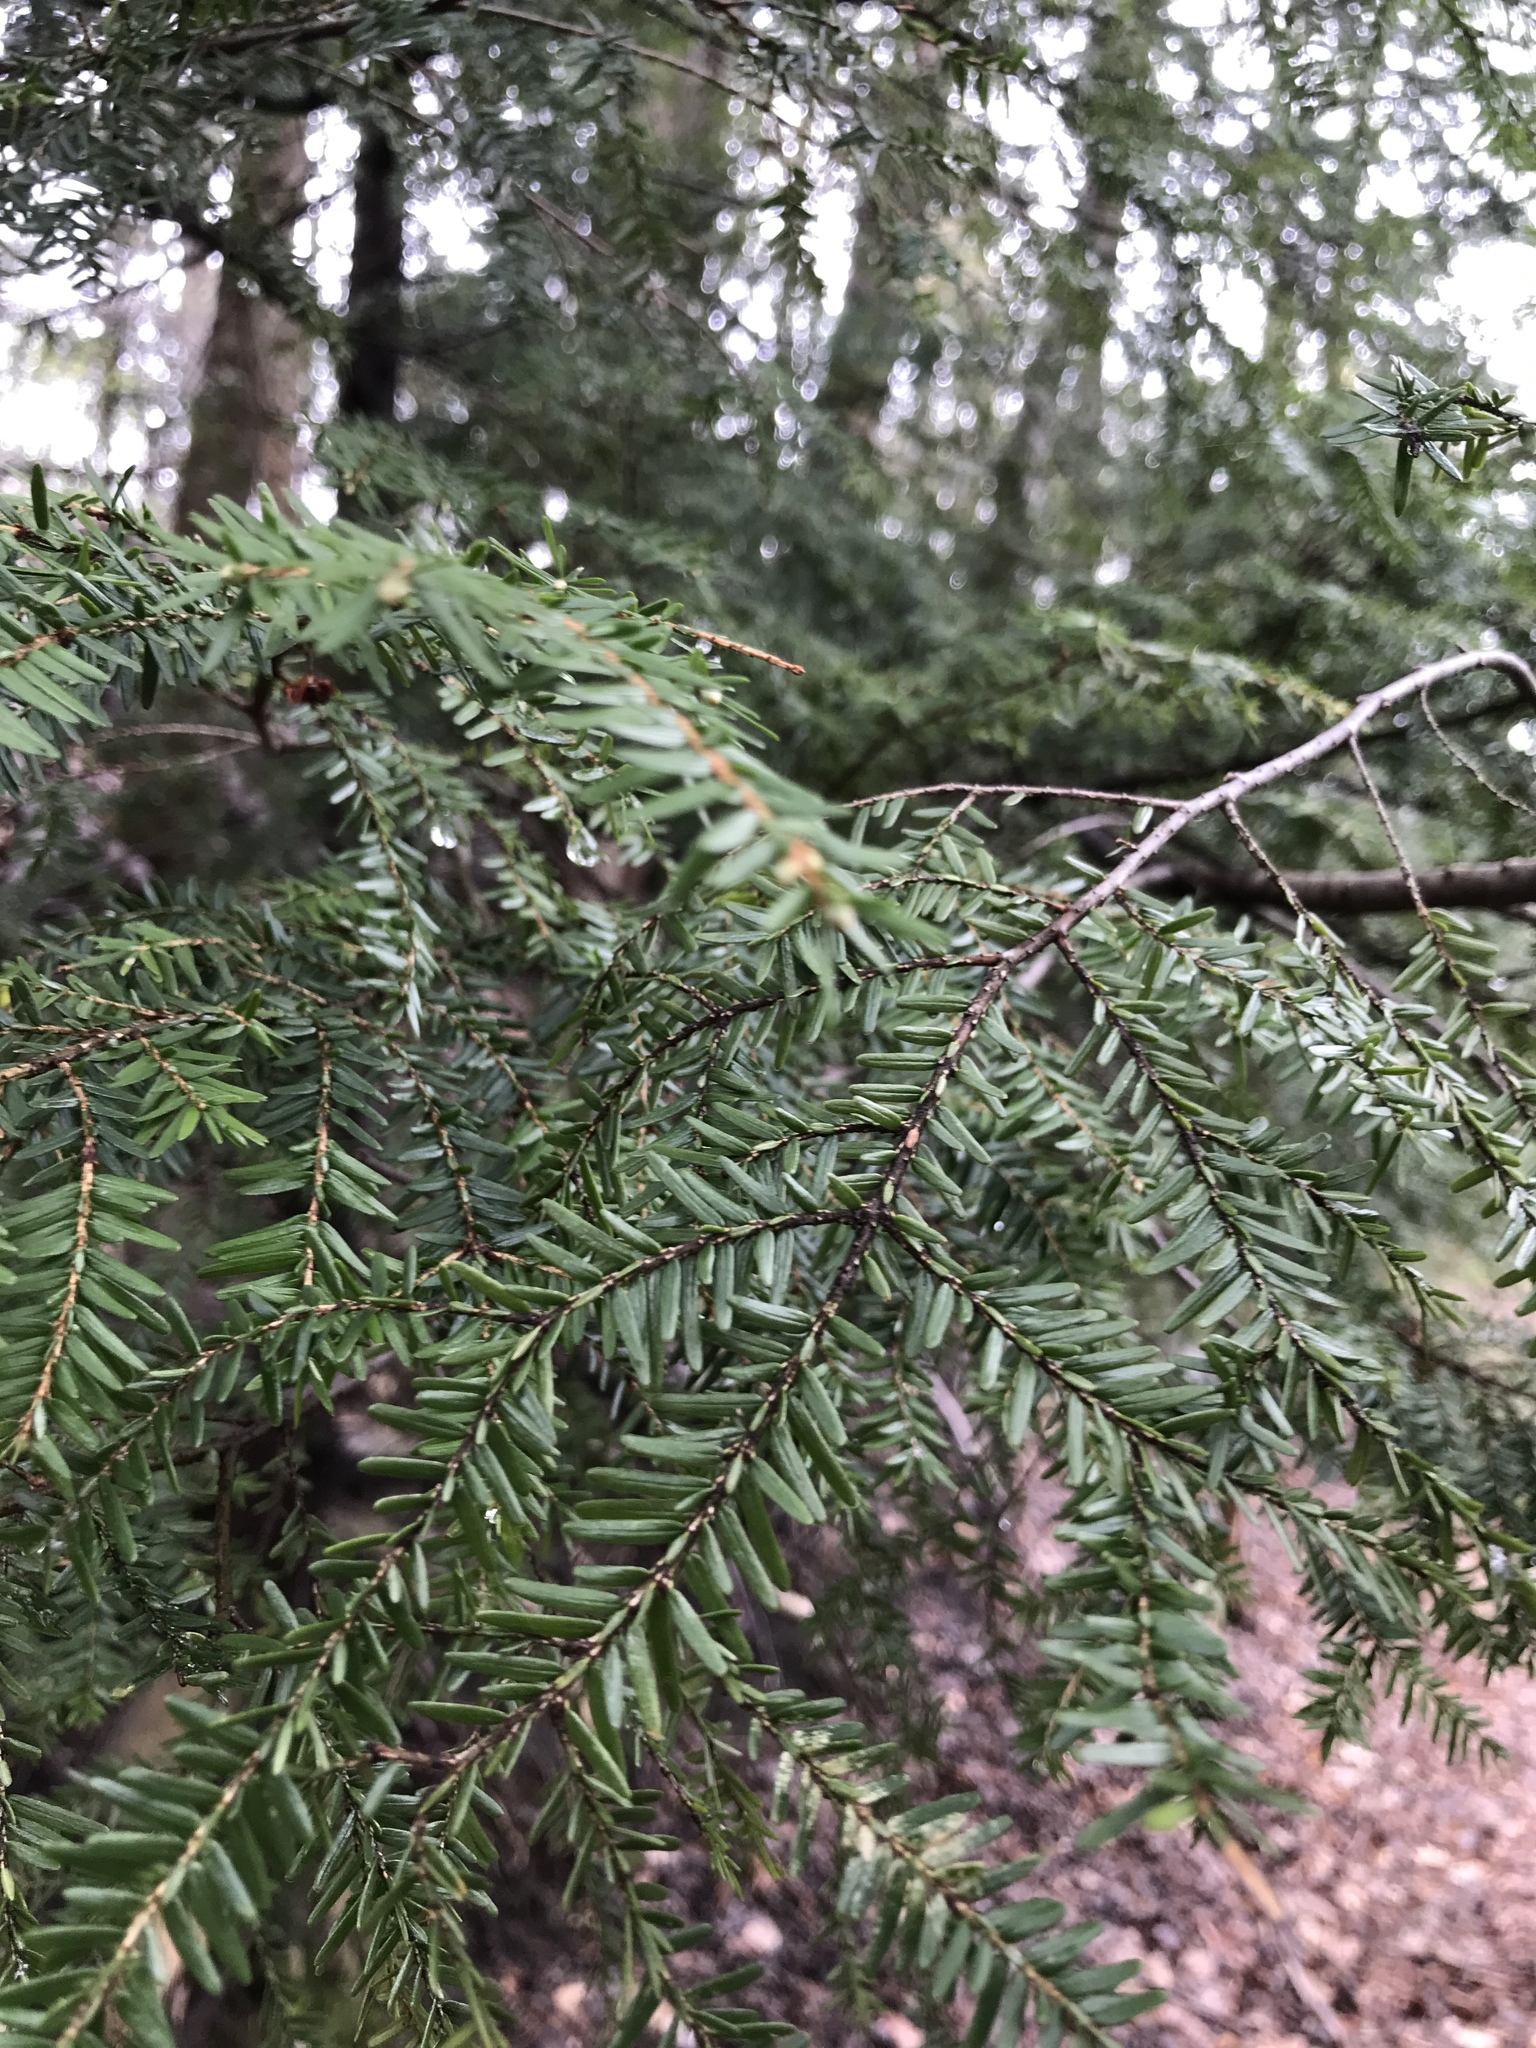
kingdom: Plantae
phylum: Tracheophyta
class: Pinopsida
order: Pinales
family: Pinaceae
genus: Tsuga
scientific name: Tsuga canadensis
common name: Eastern hemlock
